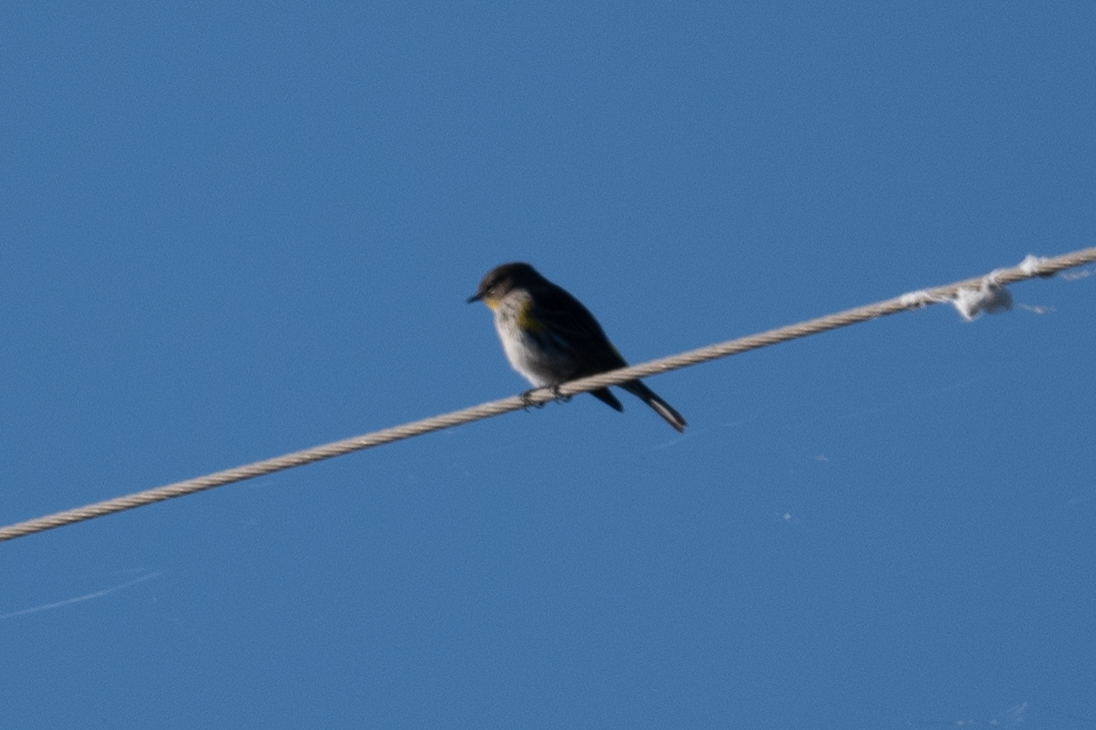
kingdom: Animalia
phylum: Chordata
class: Aves
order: Passeriformes
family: Parulidae
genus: Setophaga
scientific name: Setophaga coronata
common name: Myrtle warbler
